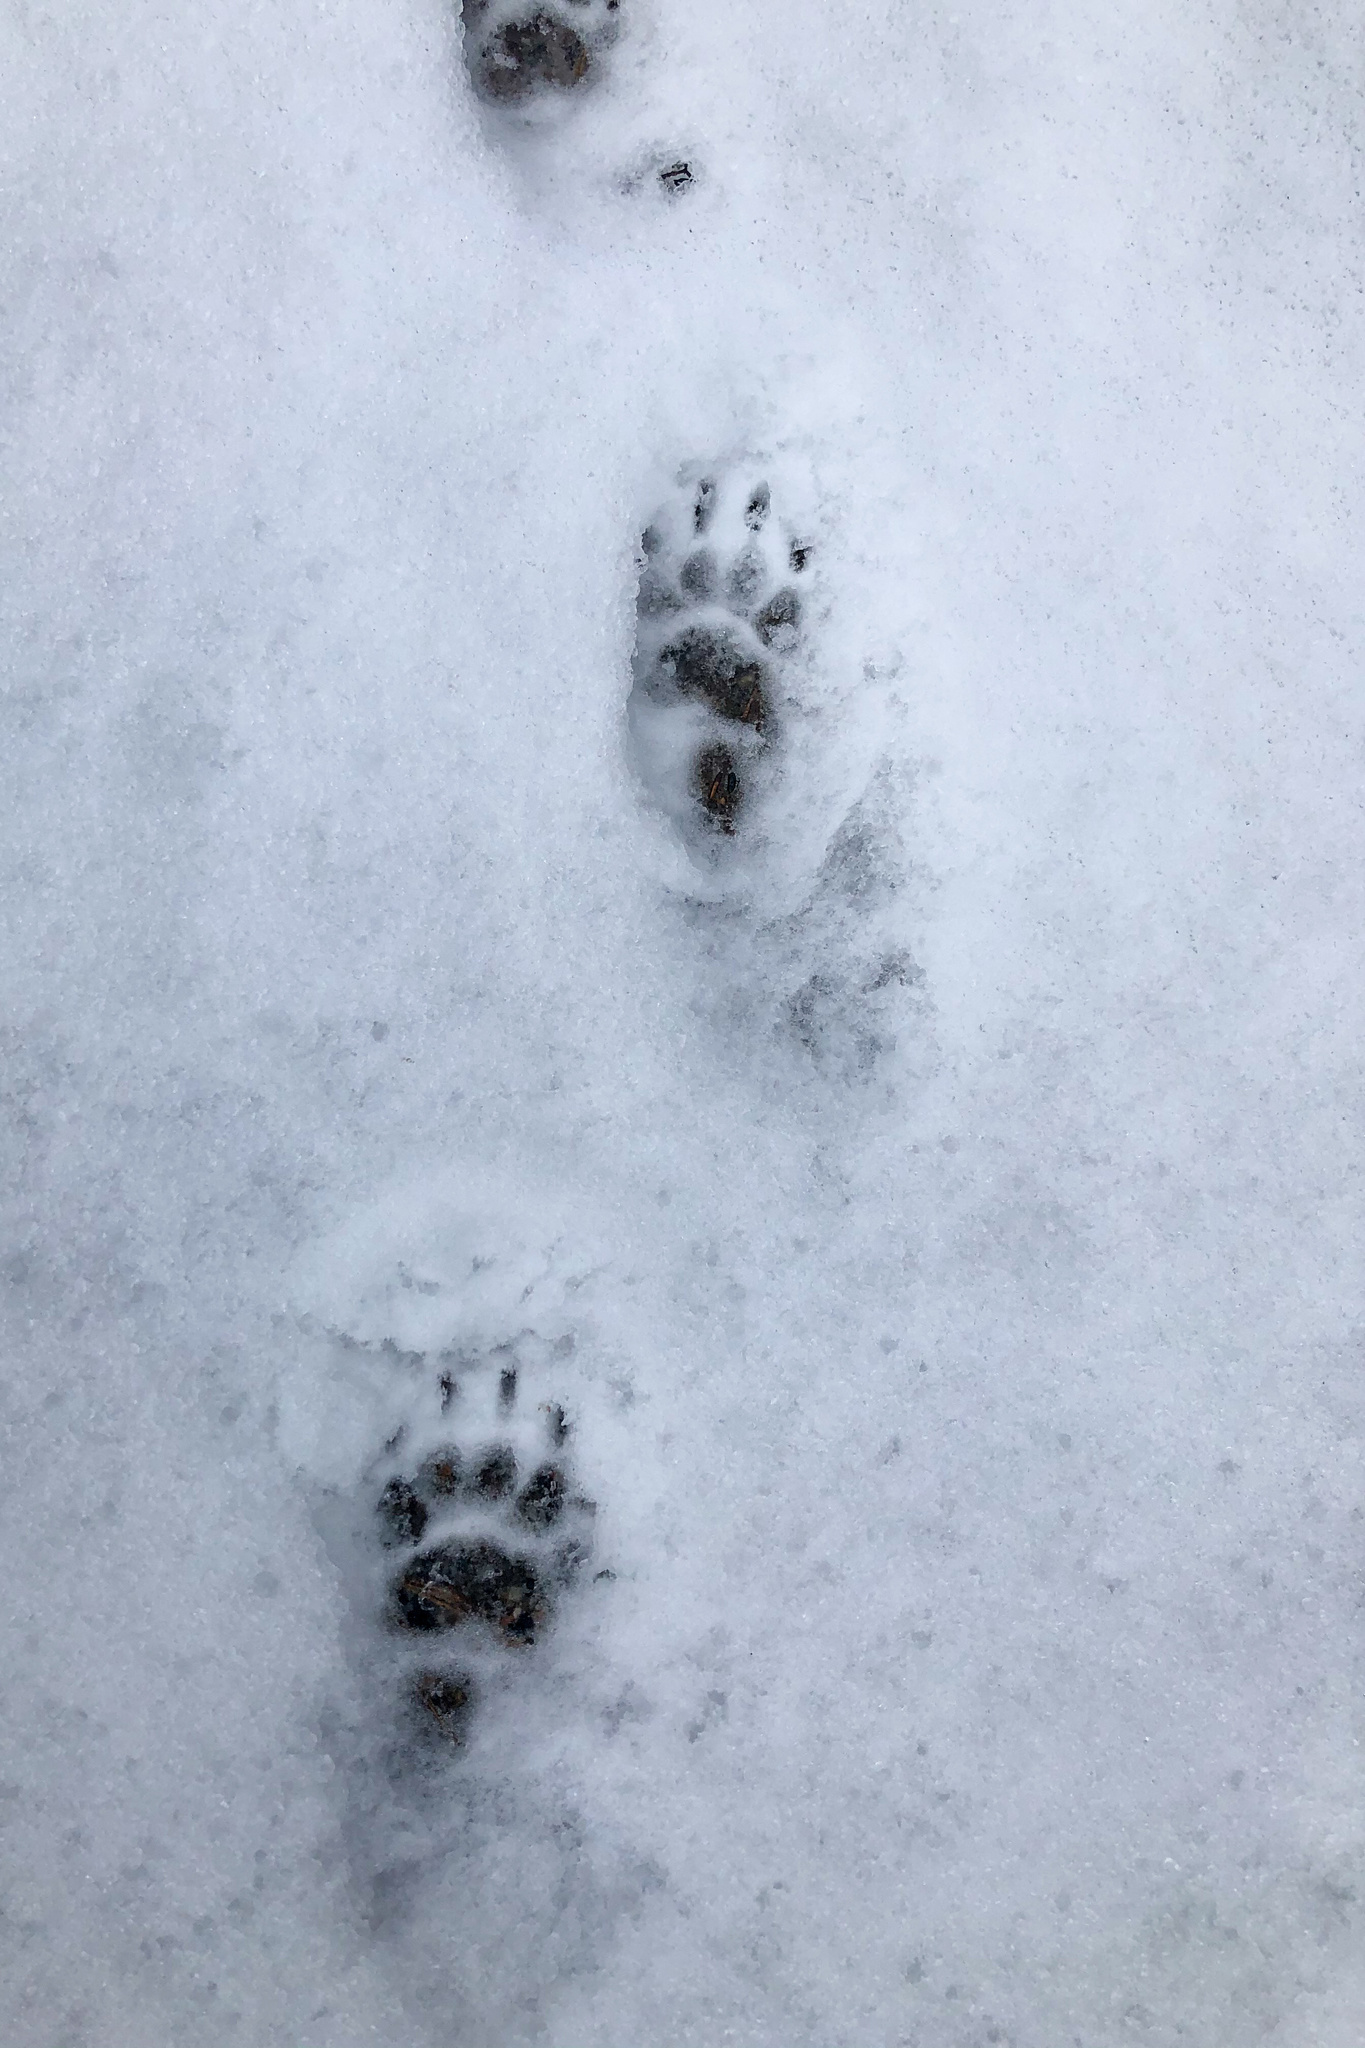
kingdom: Animalia
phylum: Chordata
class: Mammalia
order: Carnivora
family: Mustelidae
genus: Meles
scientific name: Meles meles
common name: Eurasian badger
